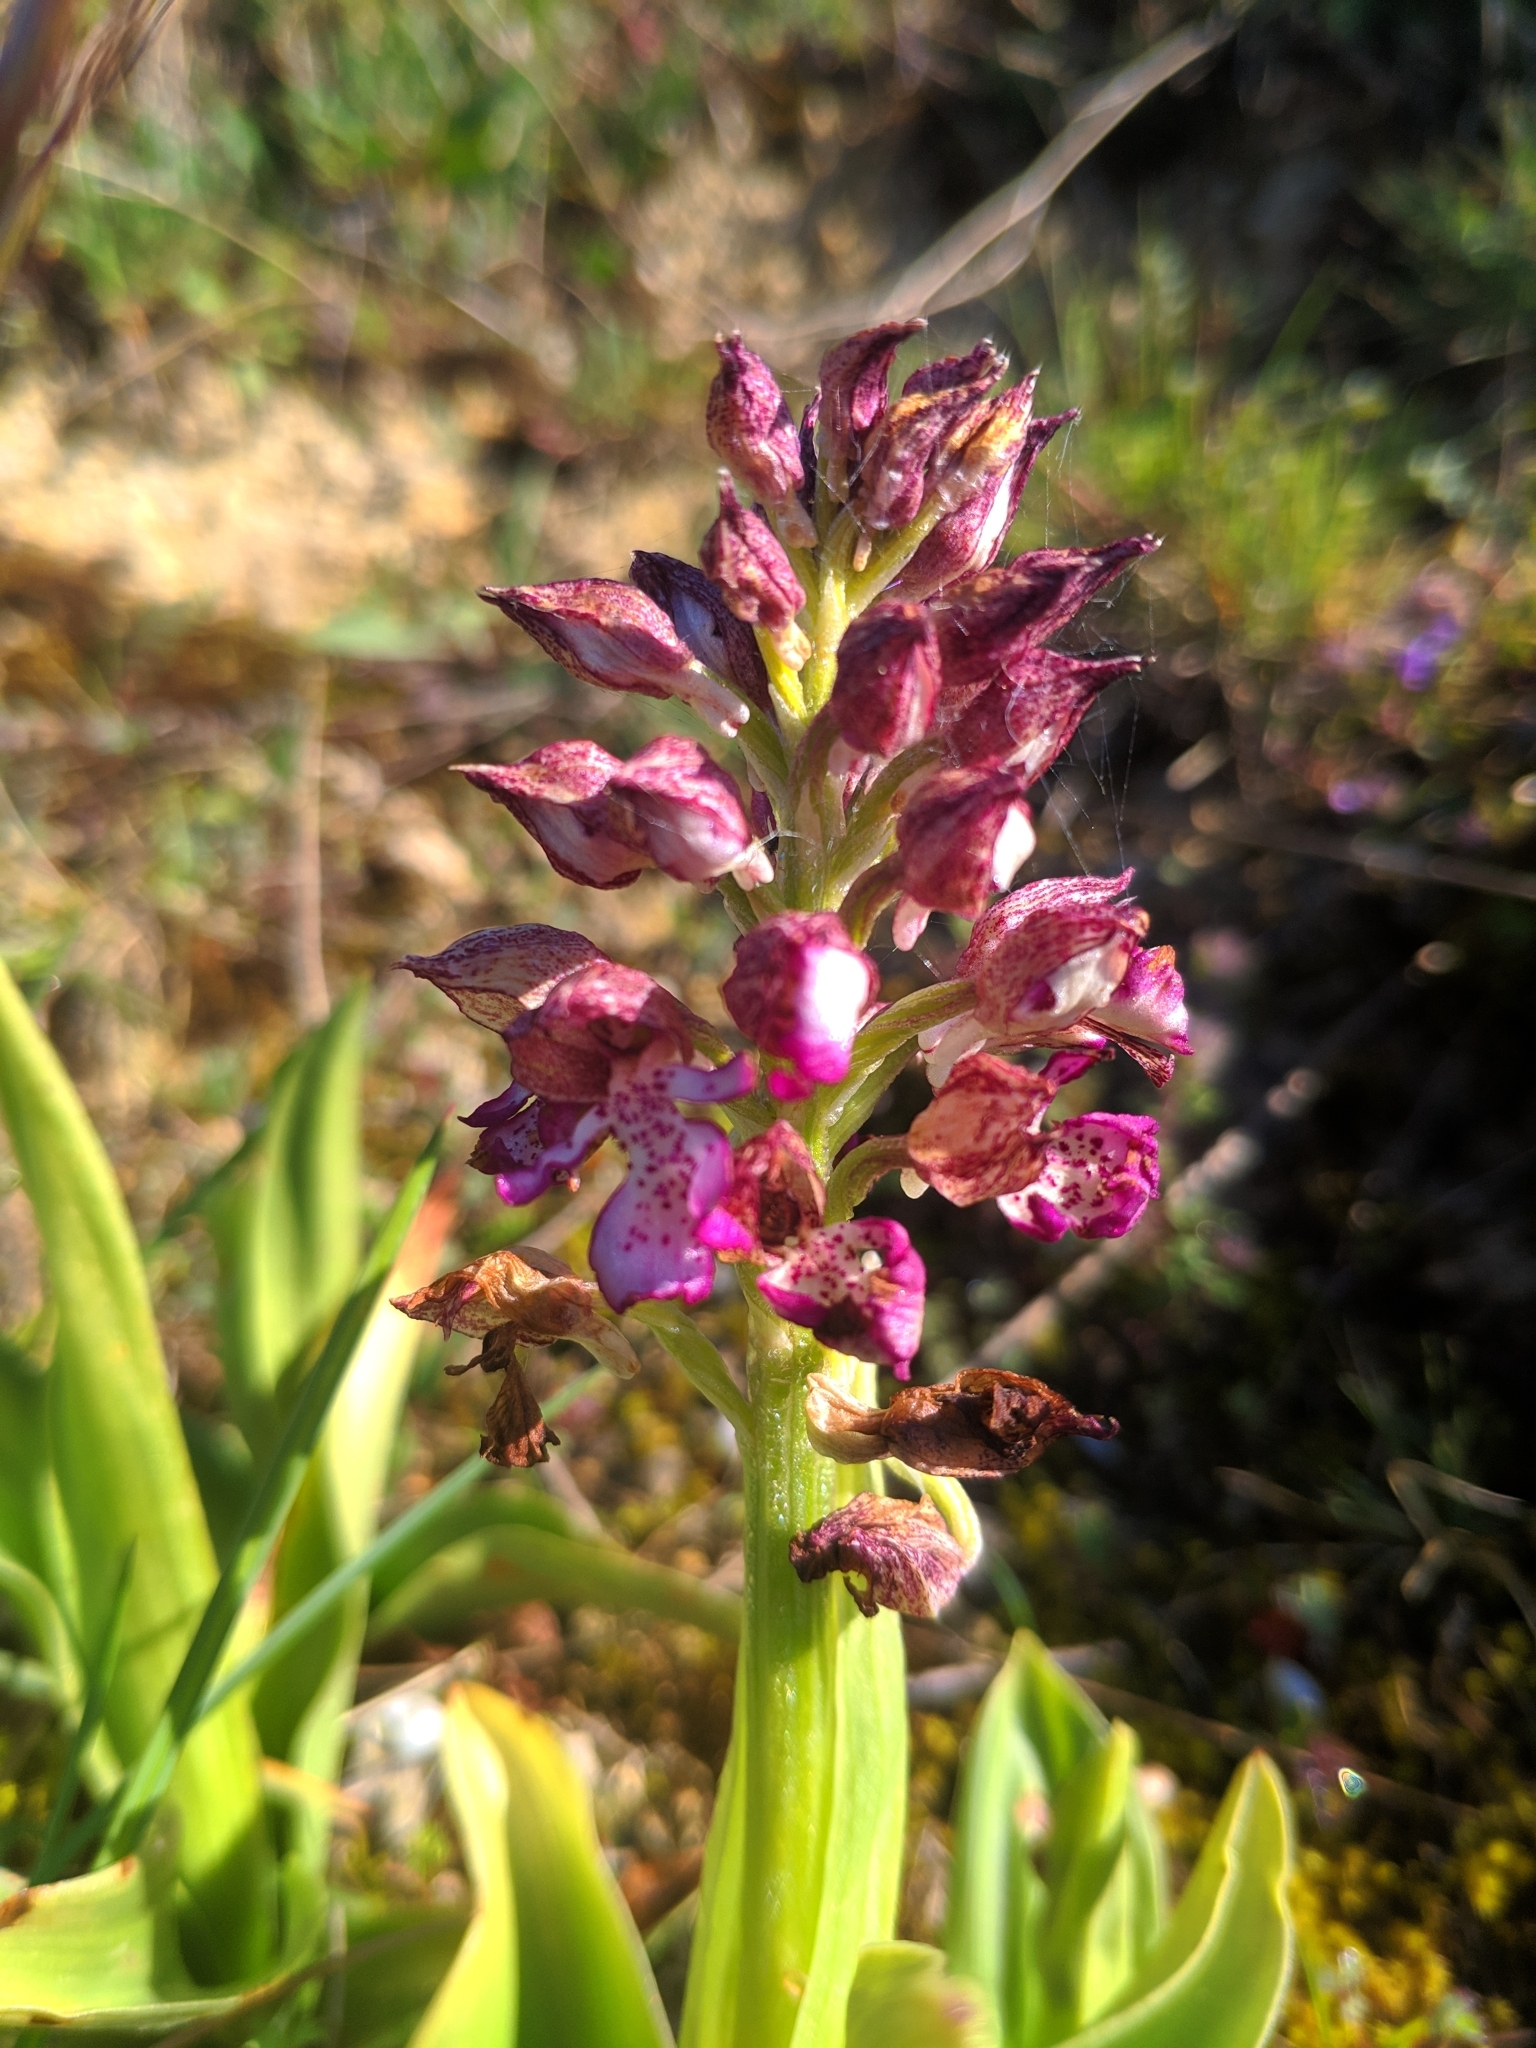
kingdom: Plantae
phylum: Tracheophyta
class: Liliopsida
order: Asparagales
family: Orchidaceae
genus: Orchis
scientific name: Orchis purpurea
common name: Lady orchid
